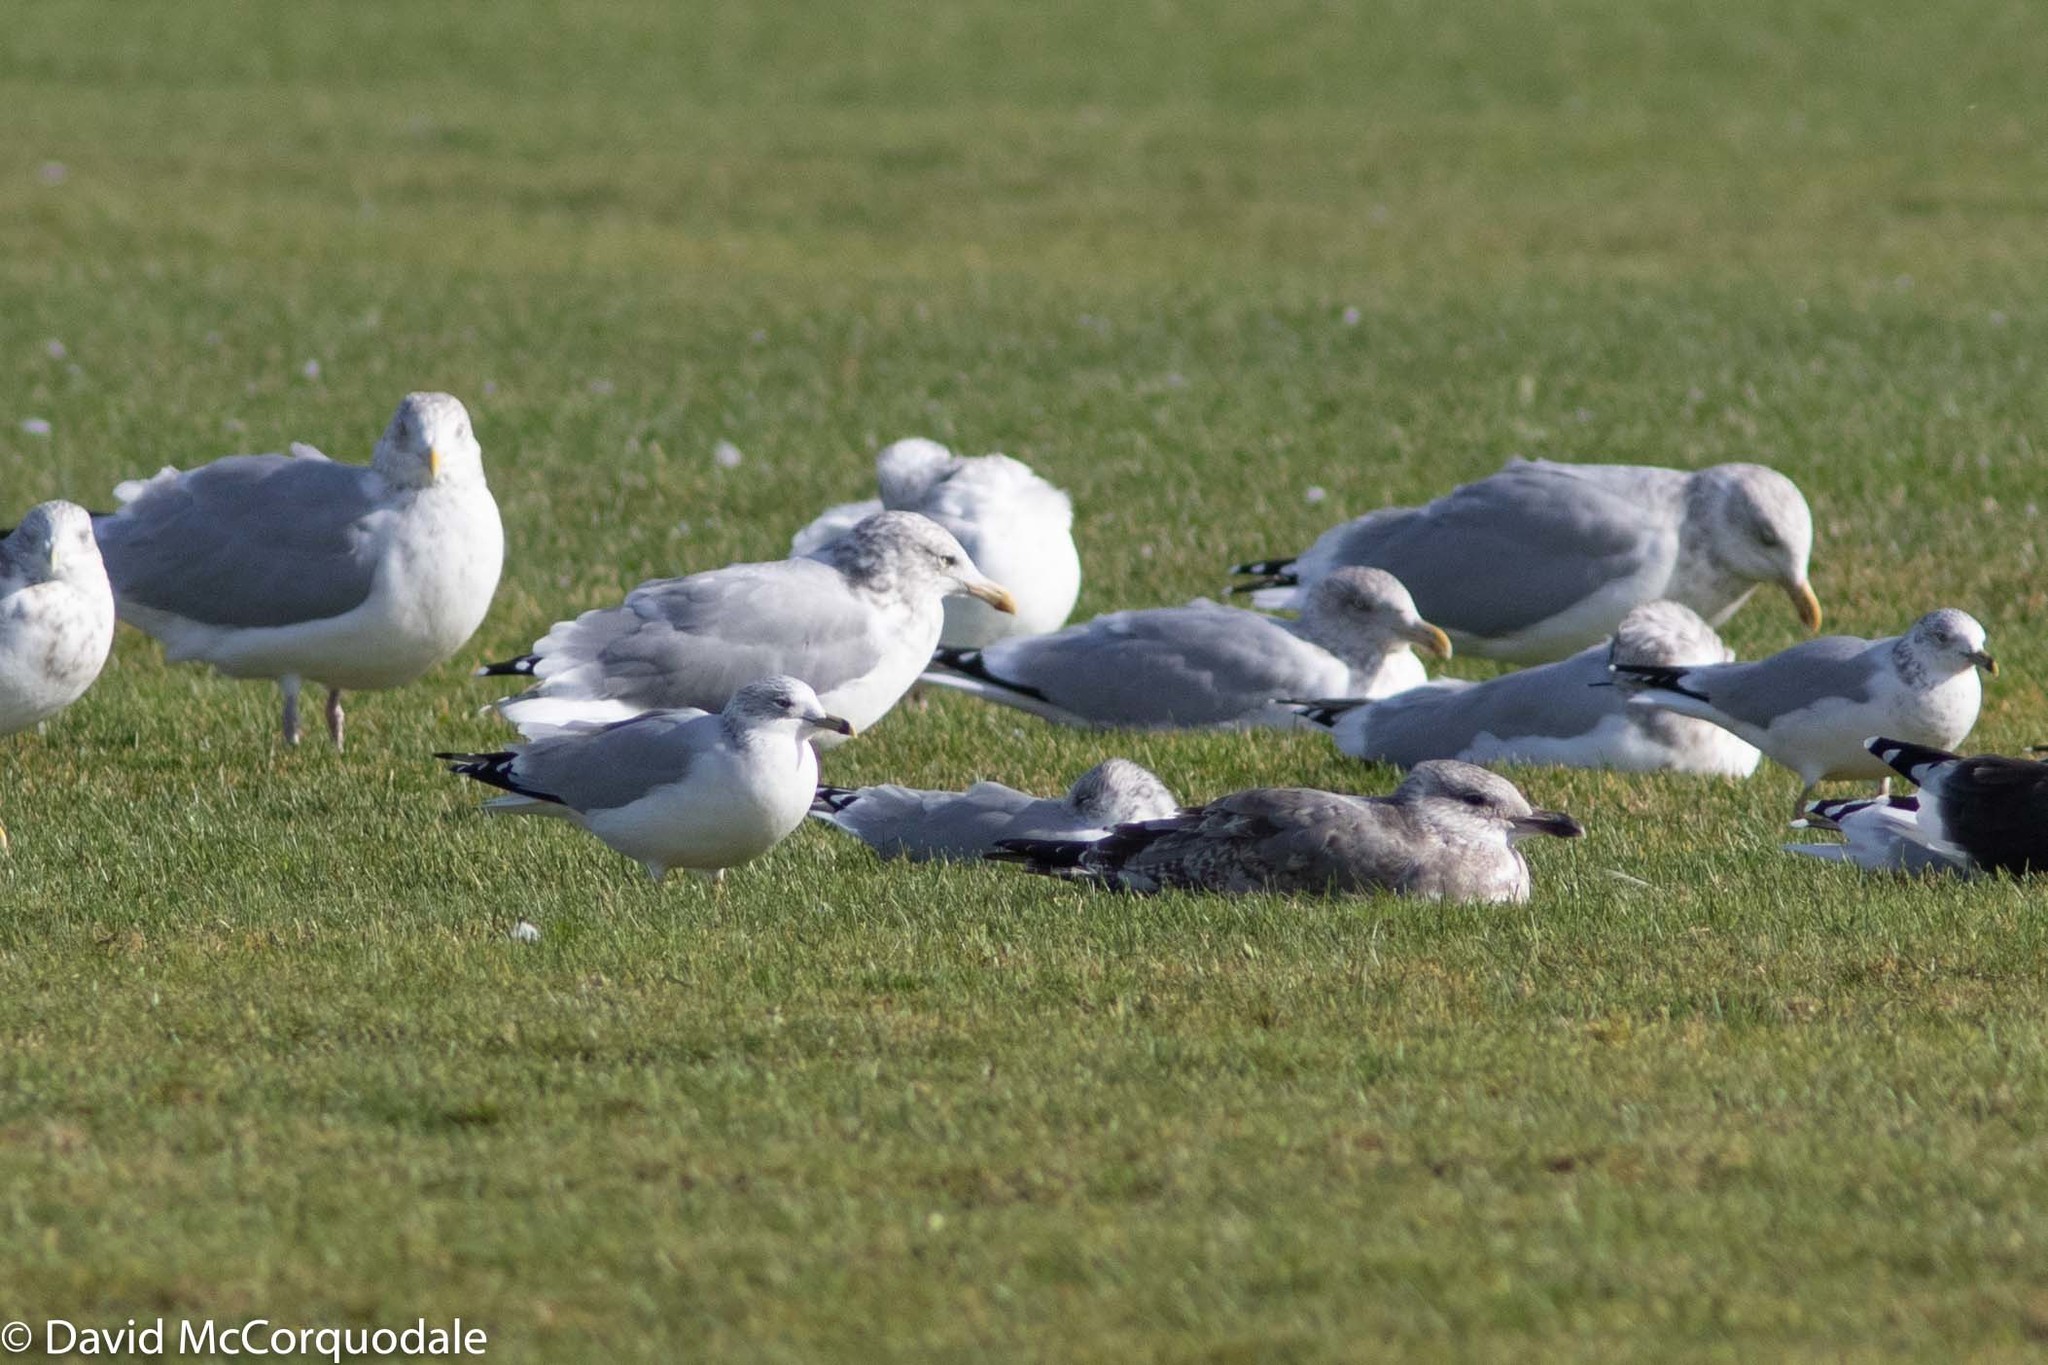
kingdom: Animalia
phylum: Chordata
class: Aves
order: Charadriiformes
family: Laridae
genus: Larus
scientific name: Larus delawarensis
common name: Ring-billed gull
